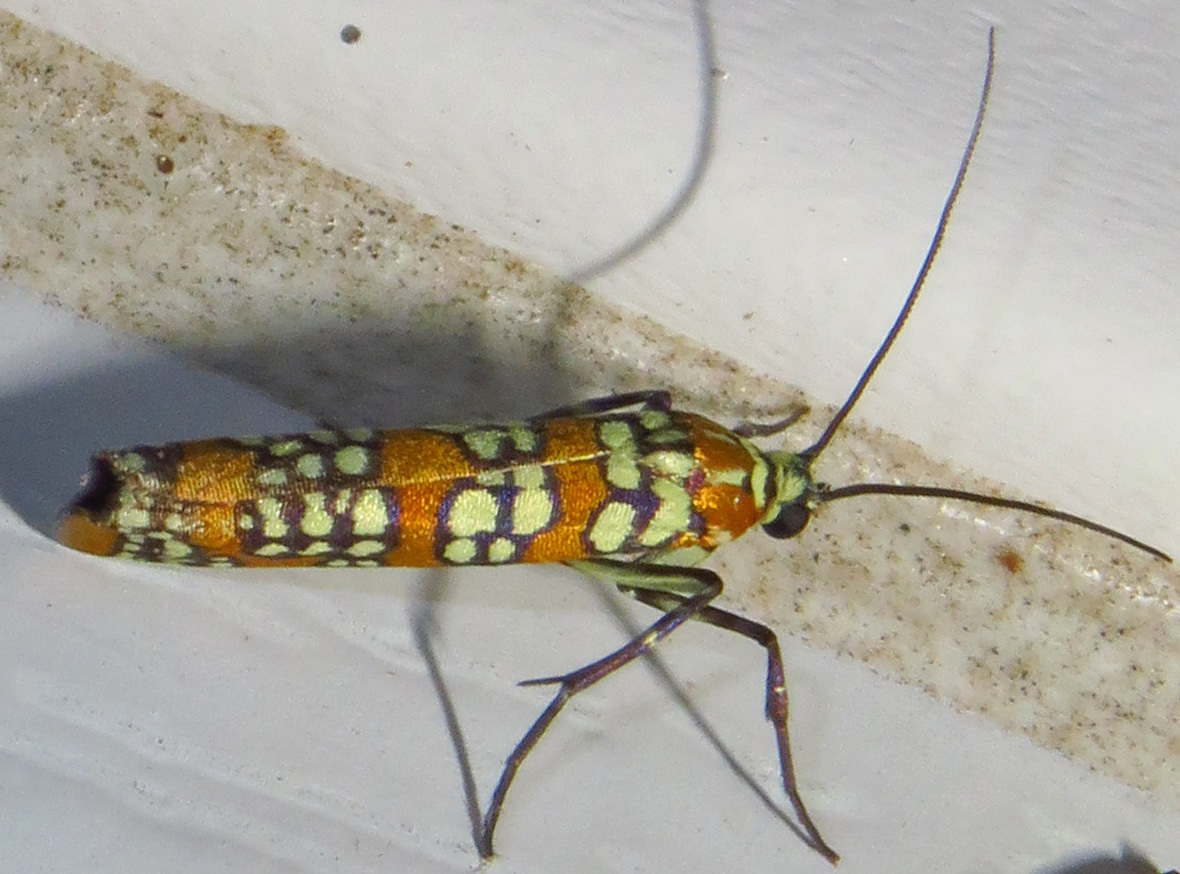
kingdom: Animalia
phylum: Arthropoda
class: Insecta
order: Lepidoptera
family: Attevidae
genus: Atteva
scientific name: Atteva punctella
